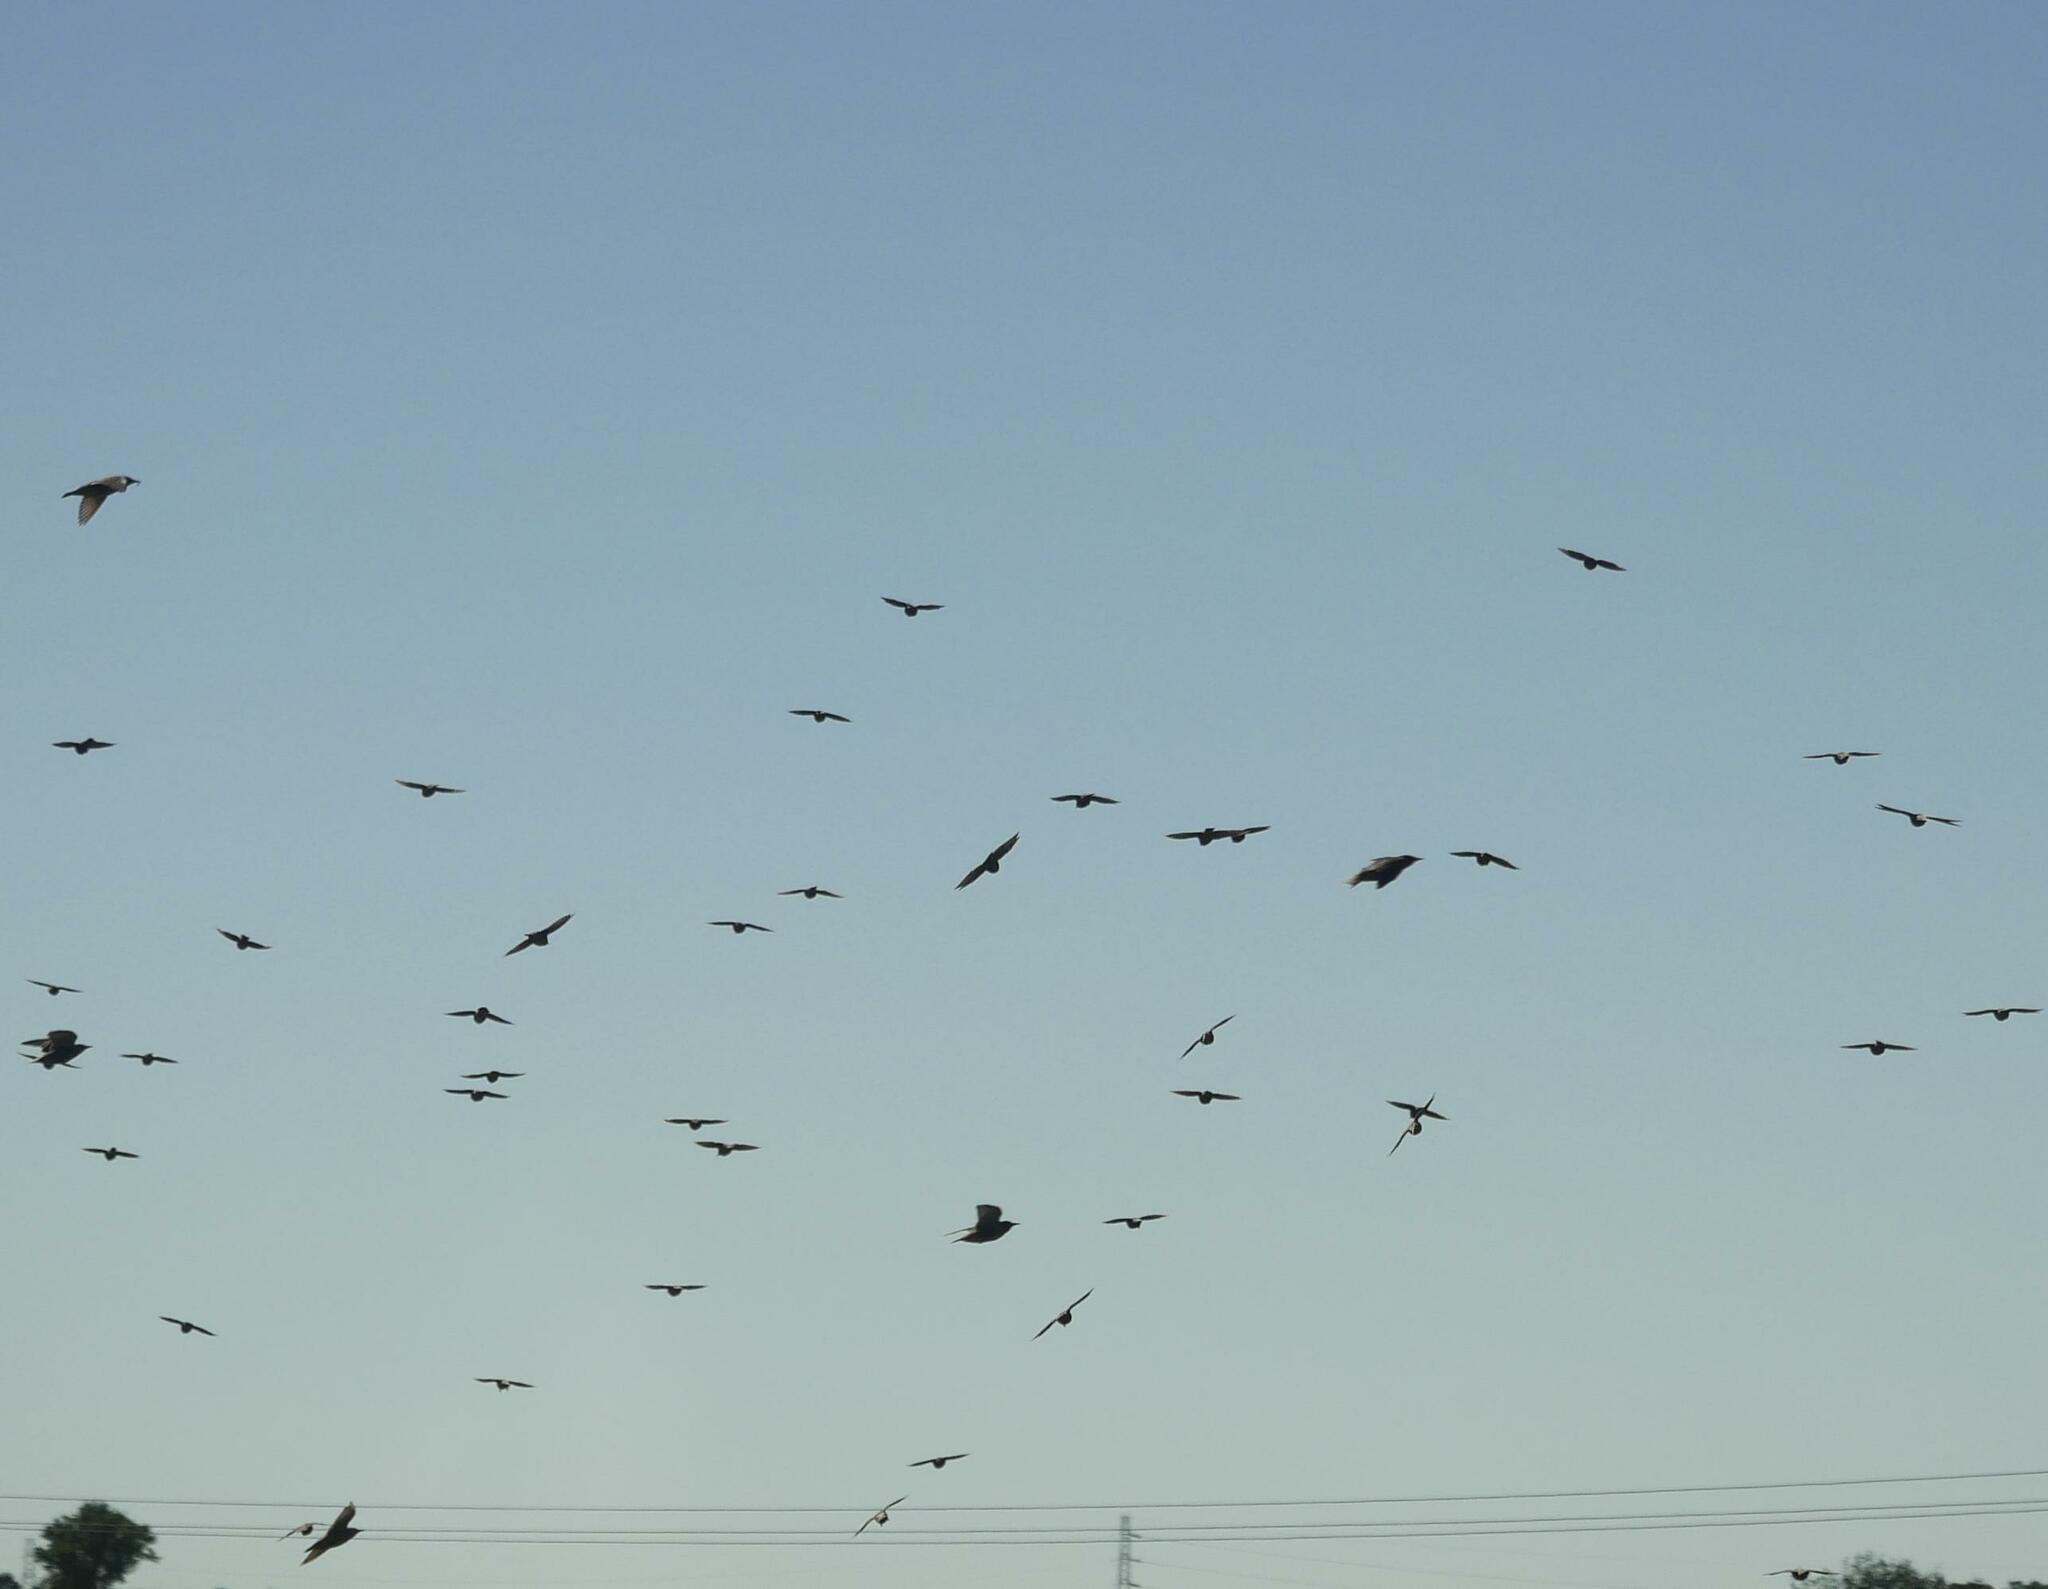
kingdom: Animalia
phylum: Chordata
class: Aves
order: Passeriformes
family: Corvidae
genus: Corvus
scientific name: Corvus brachyrhynchos
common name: American crow
